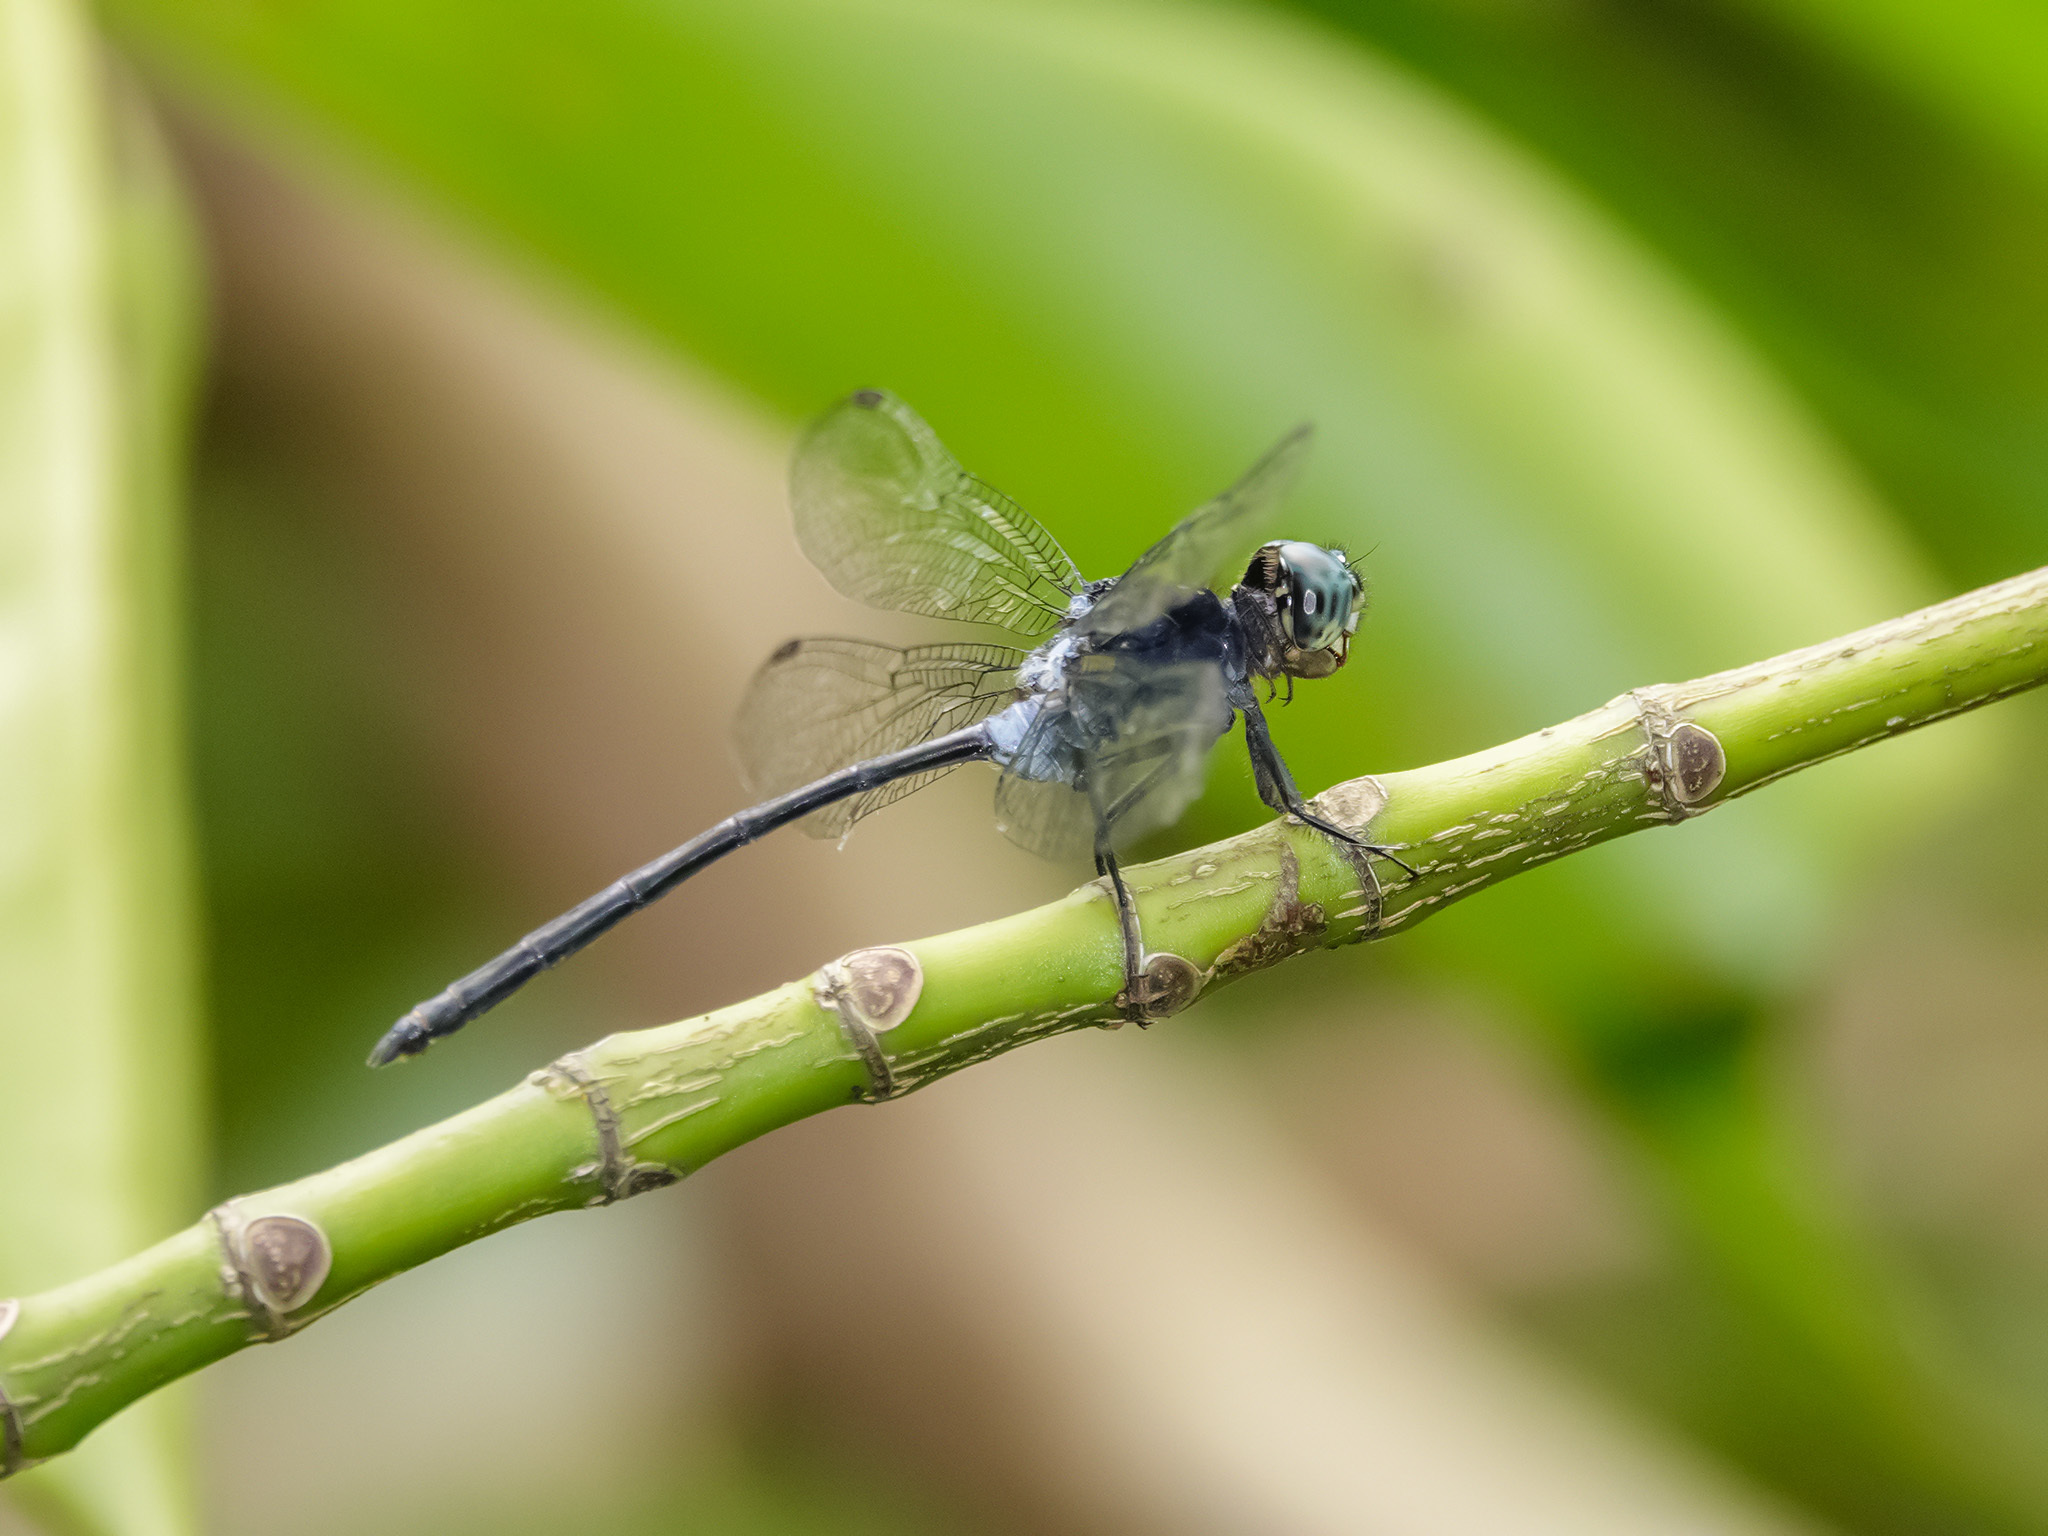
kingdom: Animalia
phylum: Arthropoda
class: Insecta
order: Odonata
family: Libellulidae
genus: Pornothemis
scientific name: Pornothemis starrei
